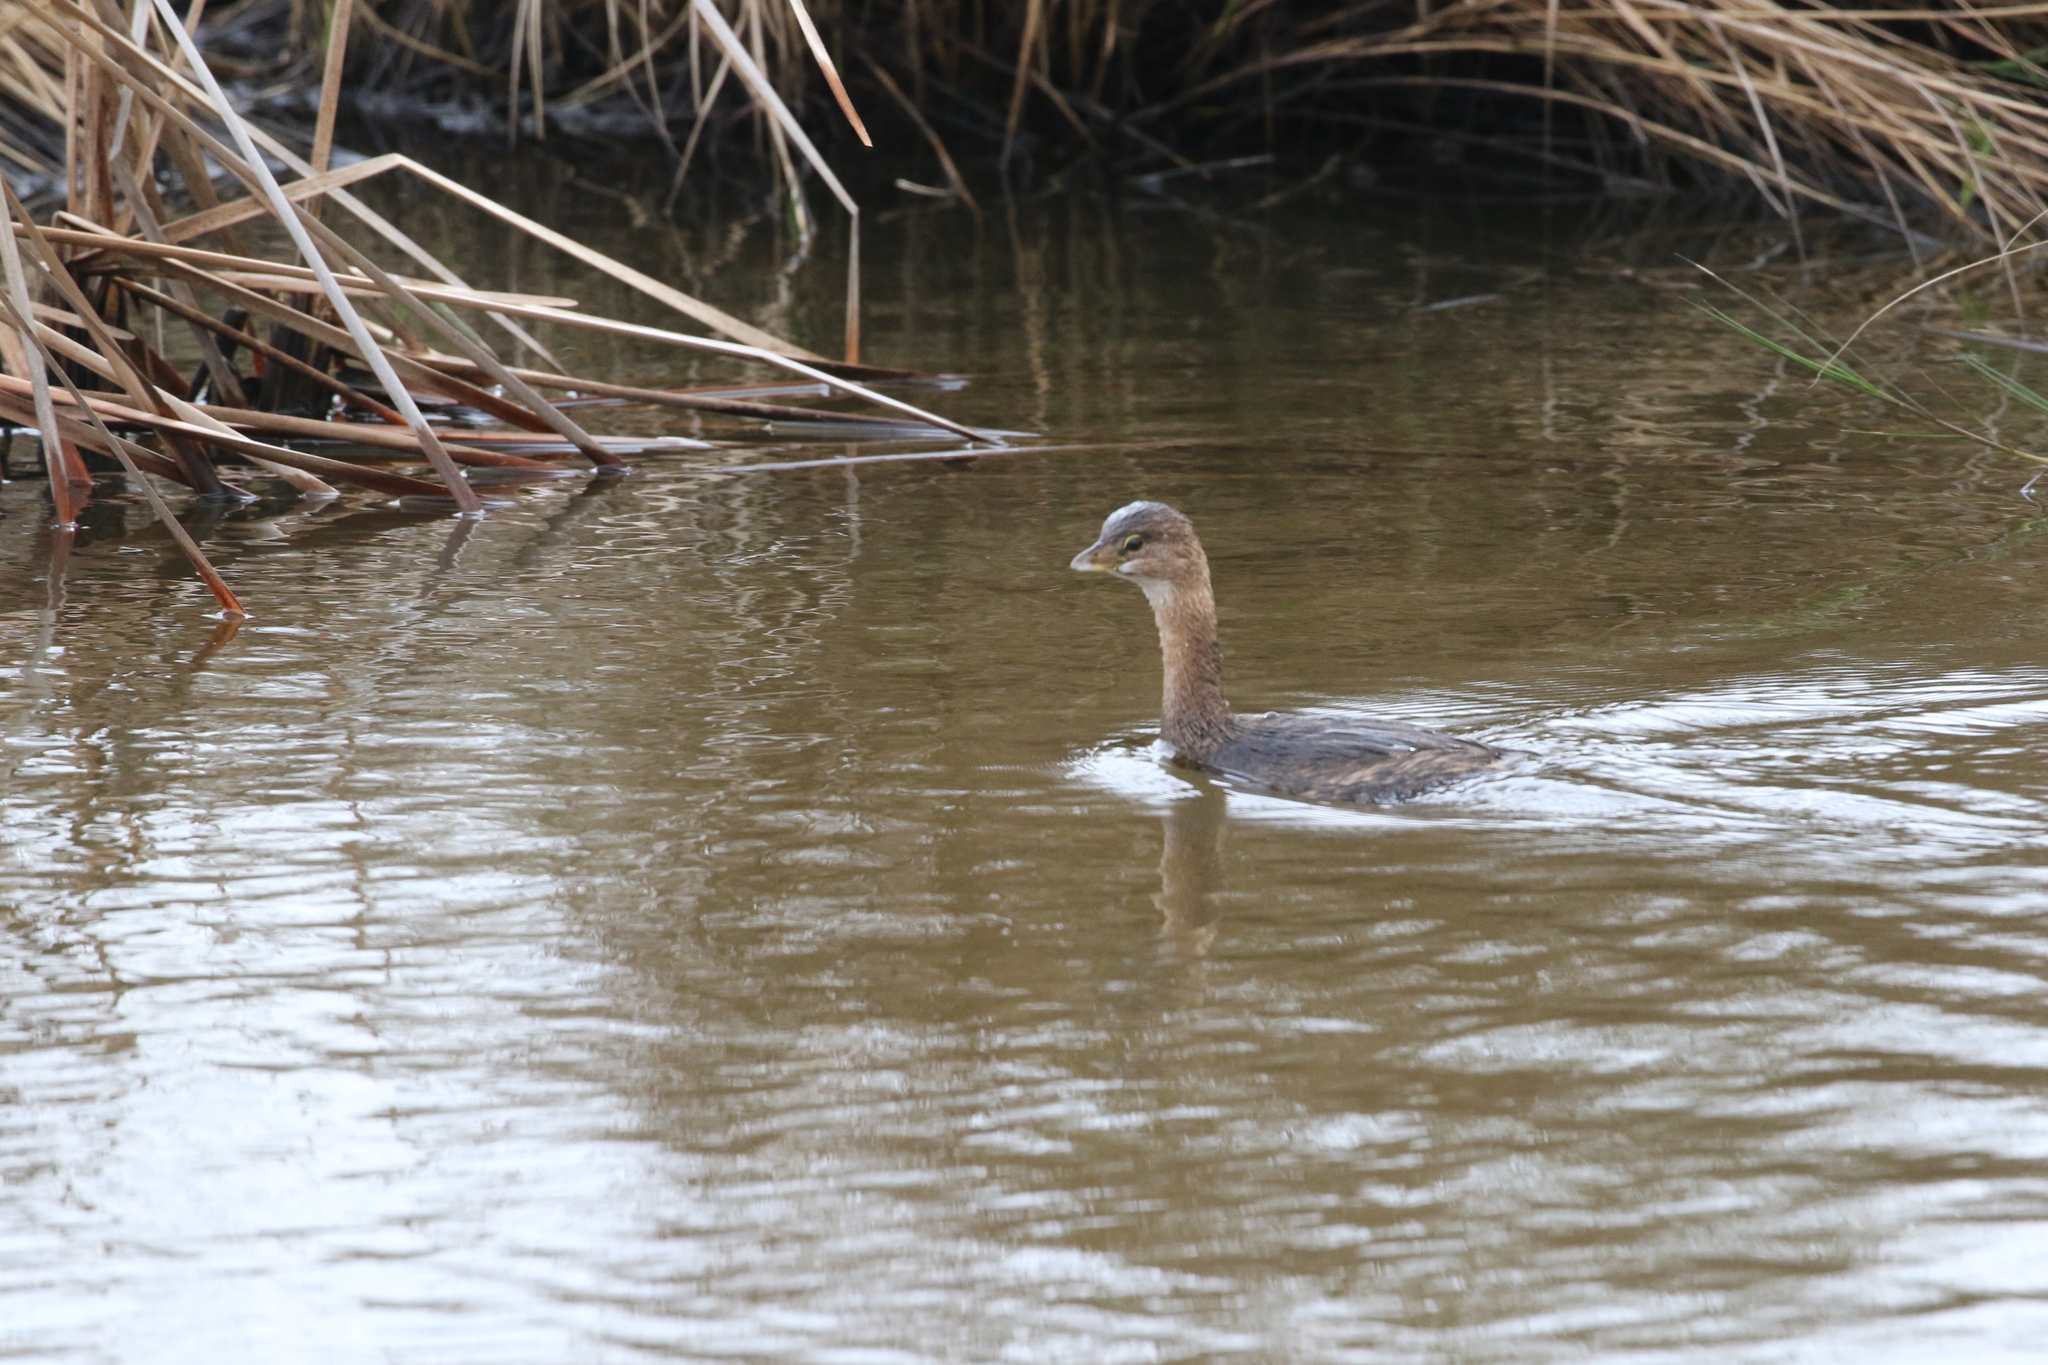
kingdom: Animalia
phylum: Chordata
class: Aves
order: Podicipediformes
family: Podicipedidae
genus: Podilymbus
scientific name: Podilymbus podiceps
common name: Pied-billed grebe
